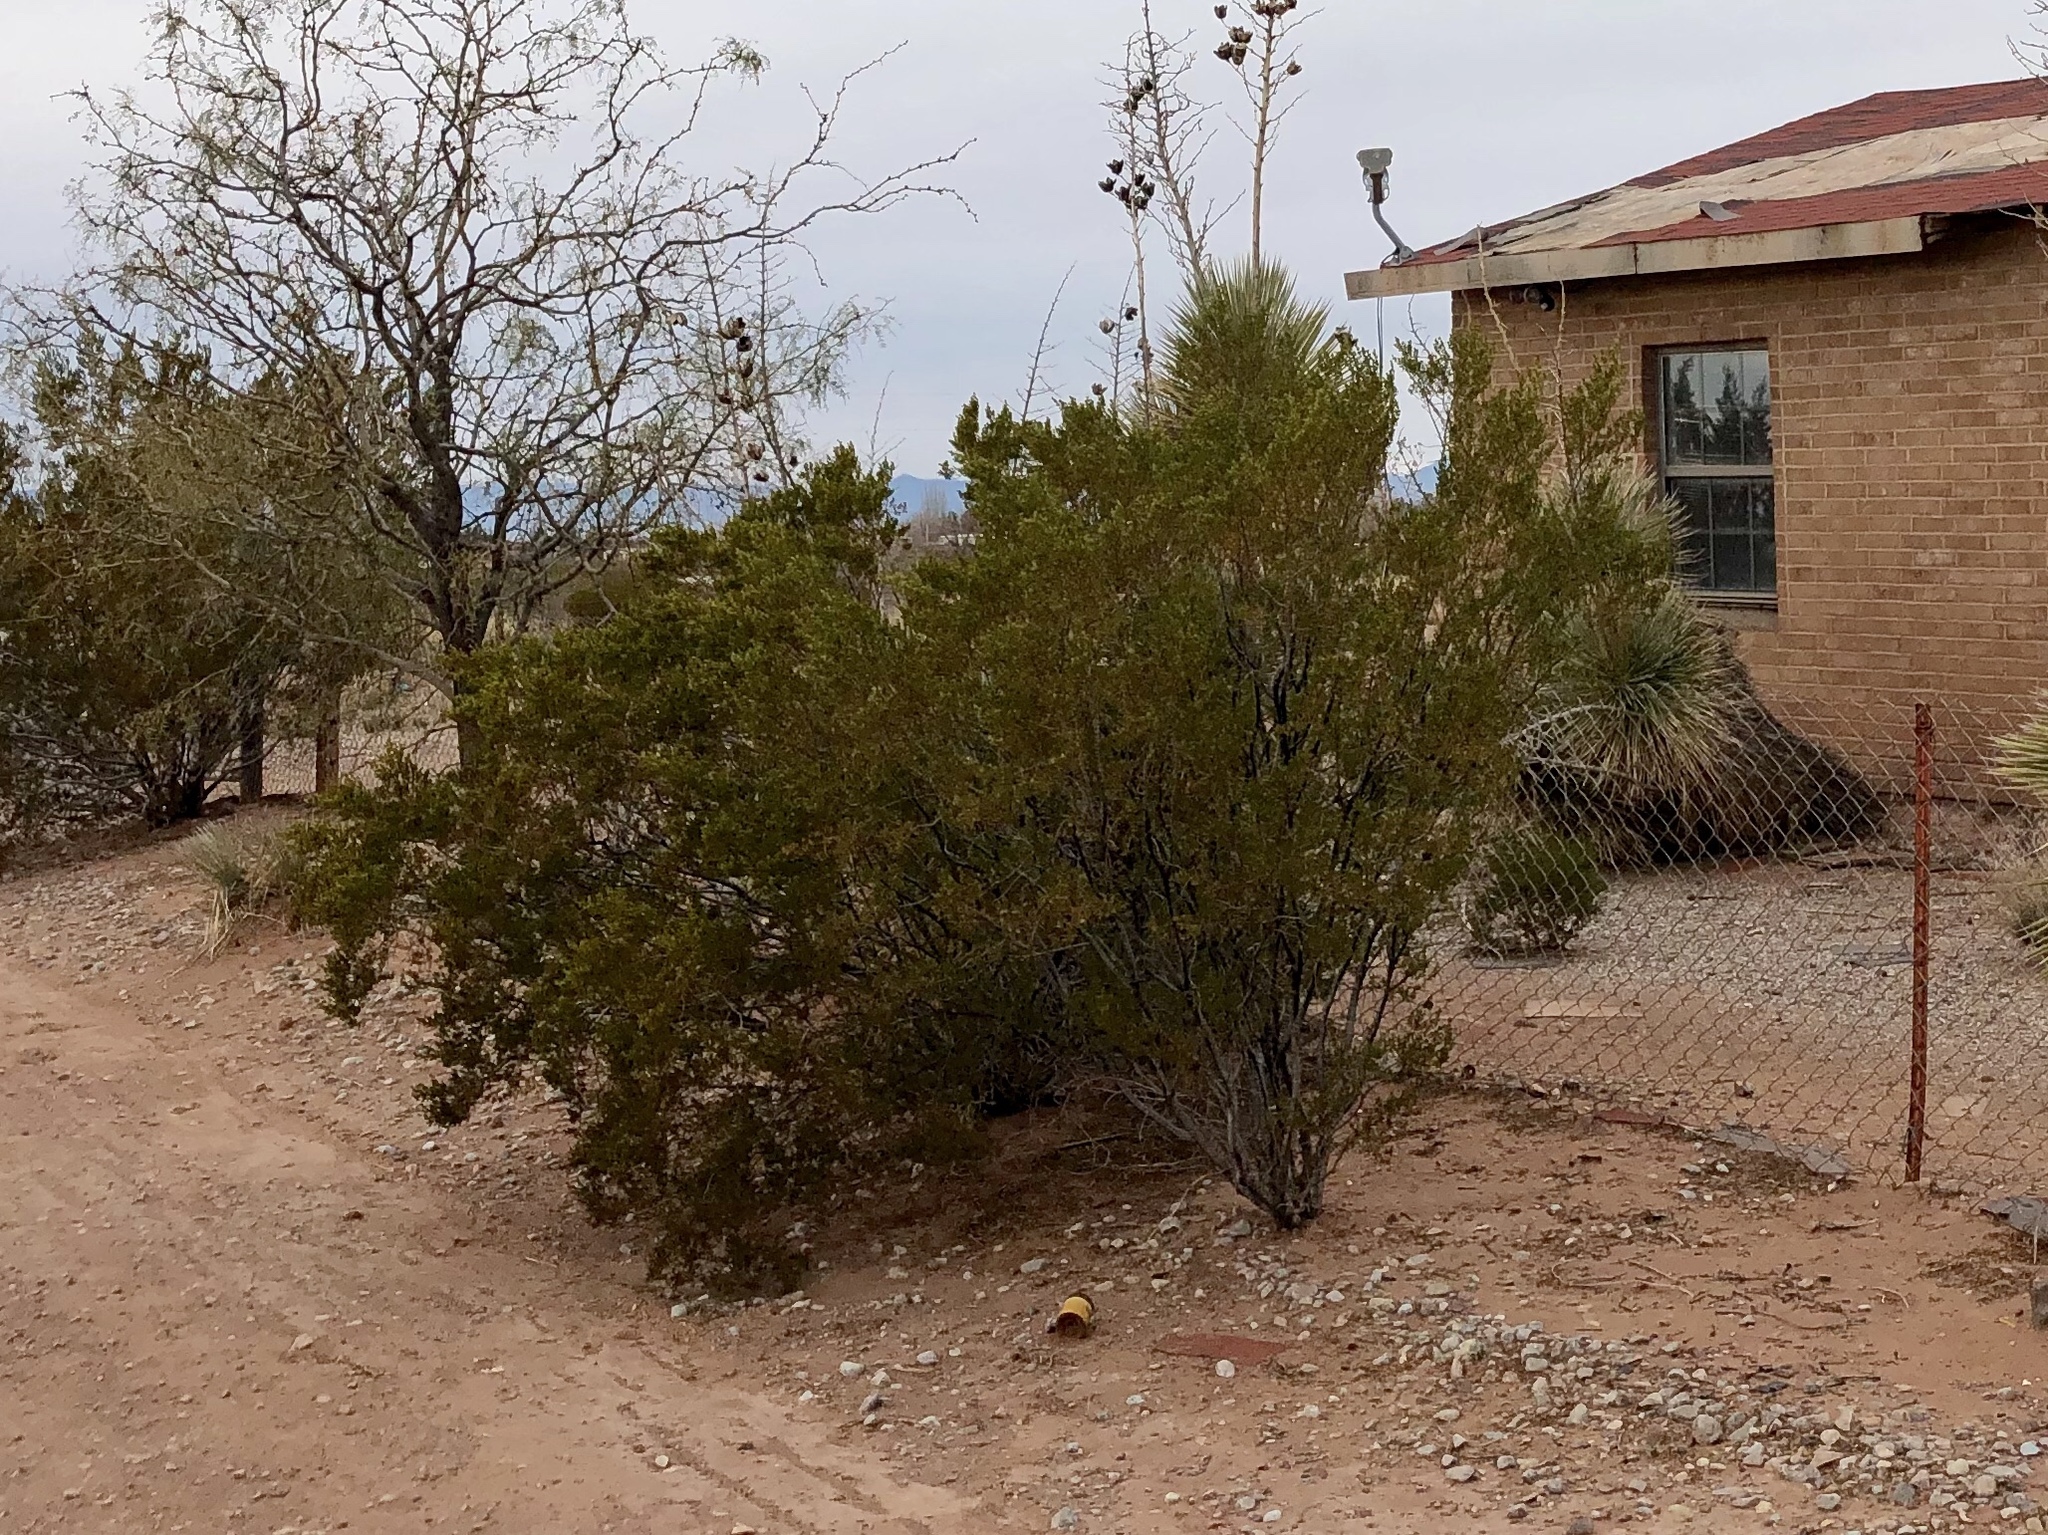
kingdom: Plantae
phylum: Tracheophyta
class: Magnoliopsida
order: Zygophyllales
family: Zygophyllaceae
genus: Larrea
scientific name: Larrea tridentata
